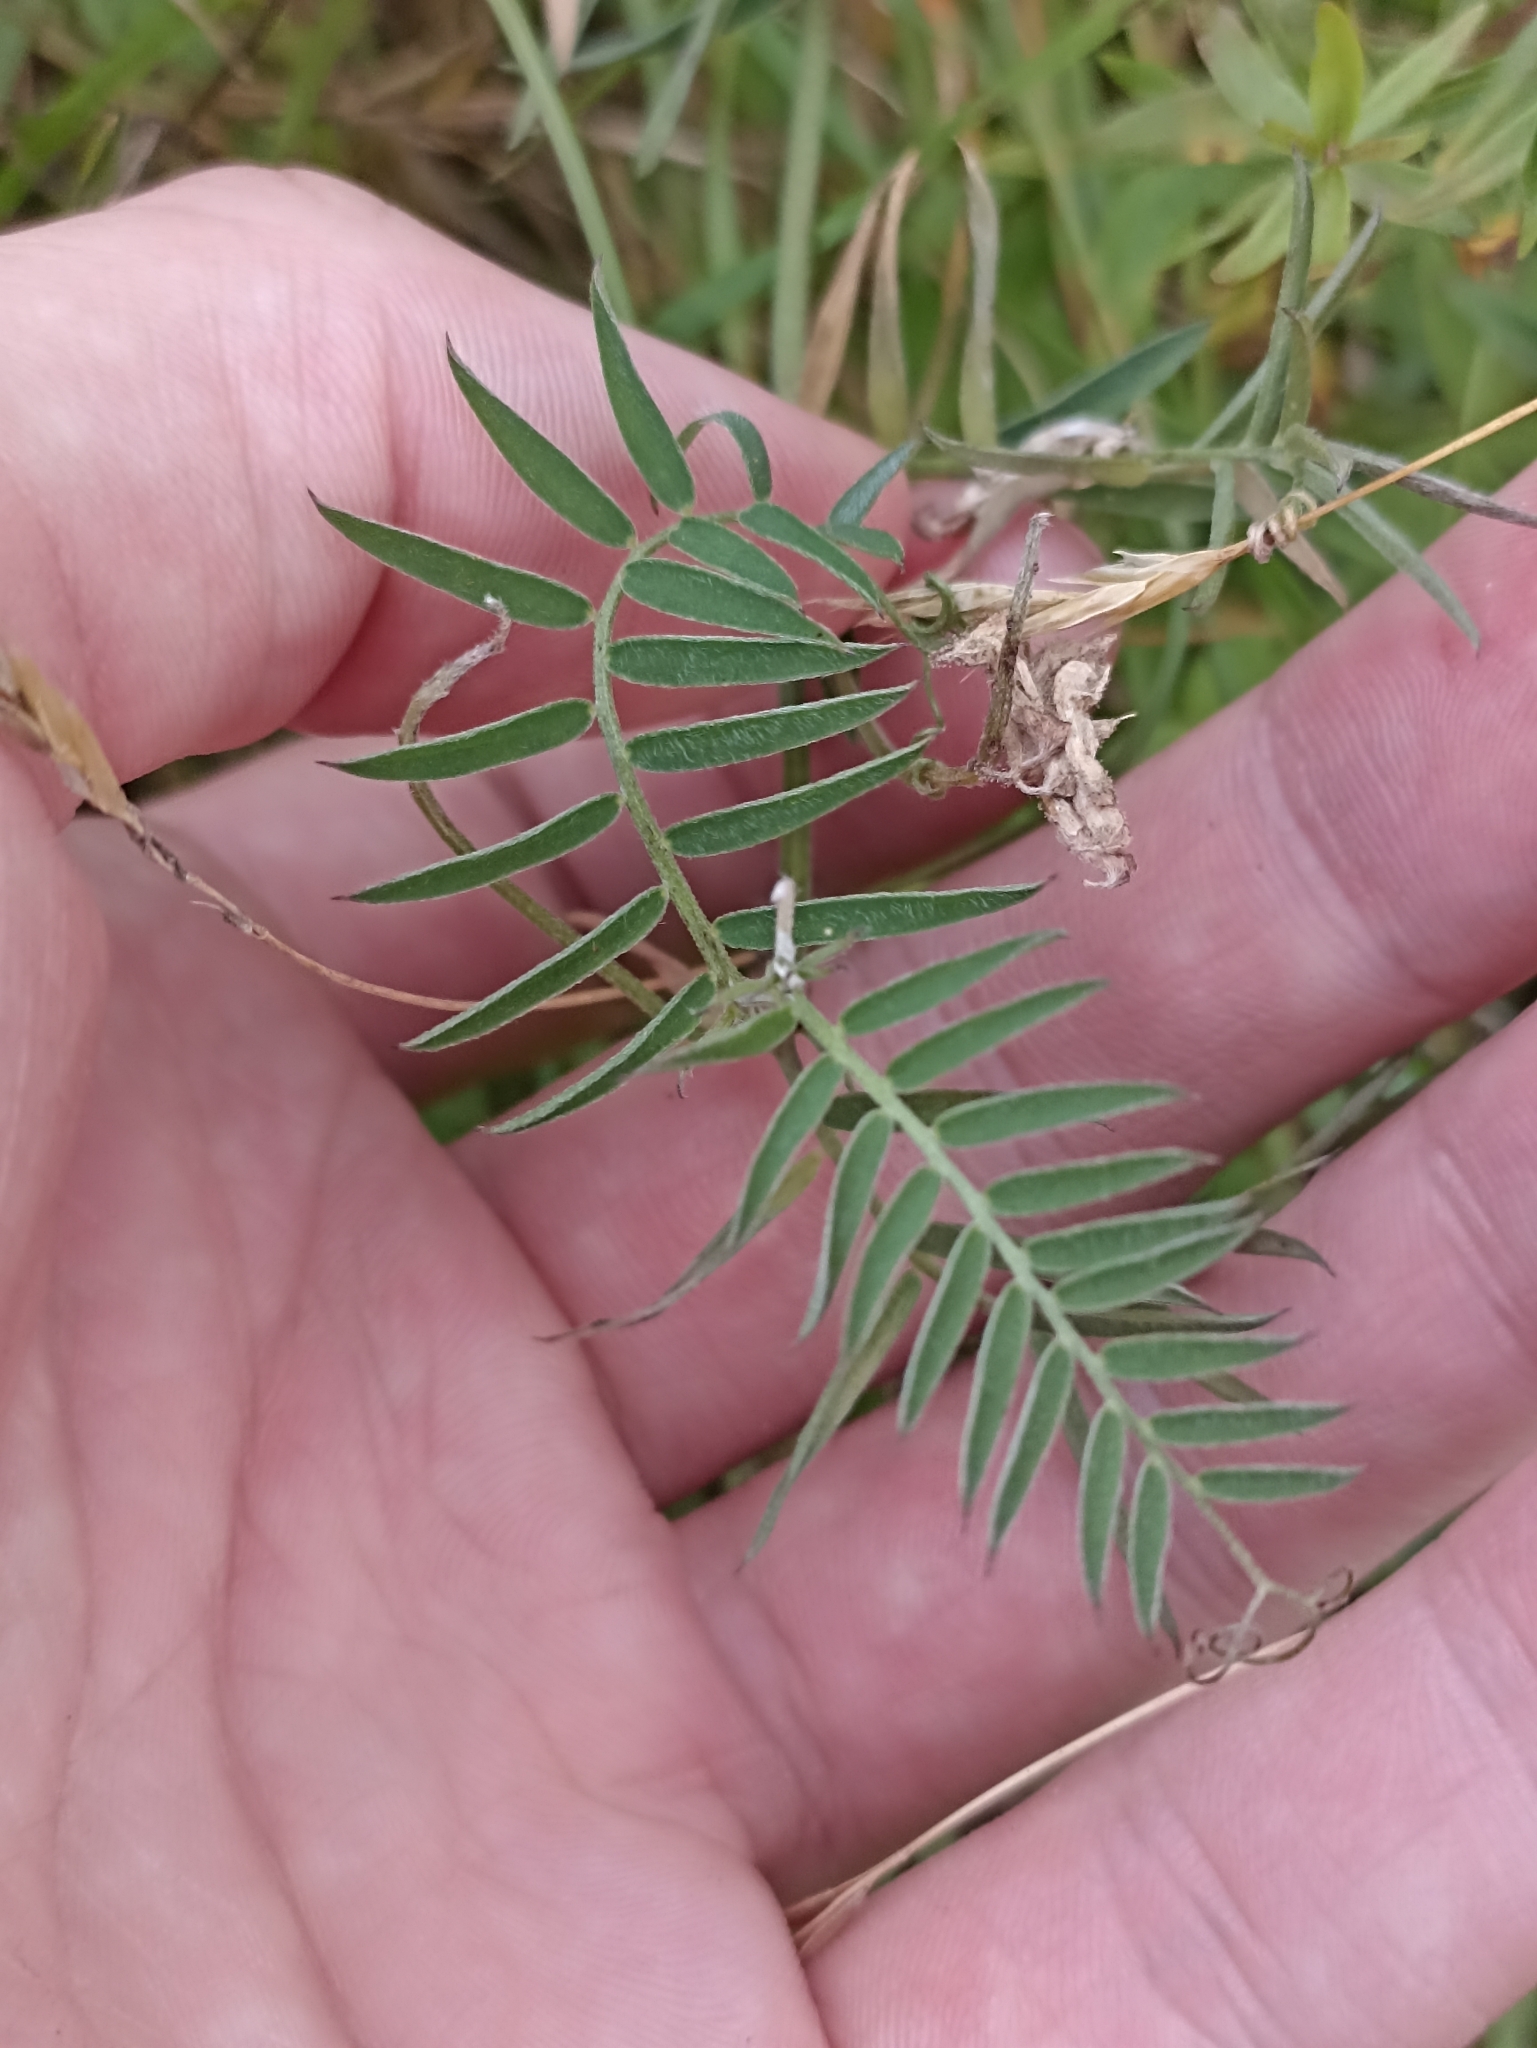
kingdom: Plantae
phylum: Tracheophyta
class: Magnoliopsida
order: Fabales
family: Fabaceae
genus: Vicia
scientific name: Vicia cracca
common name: Bird vetch
